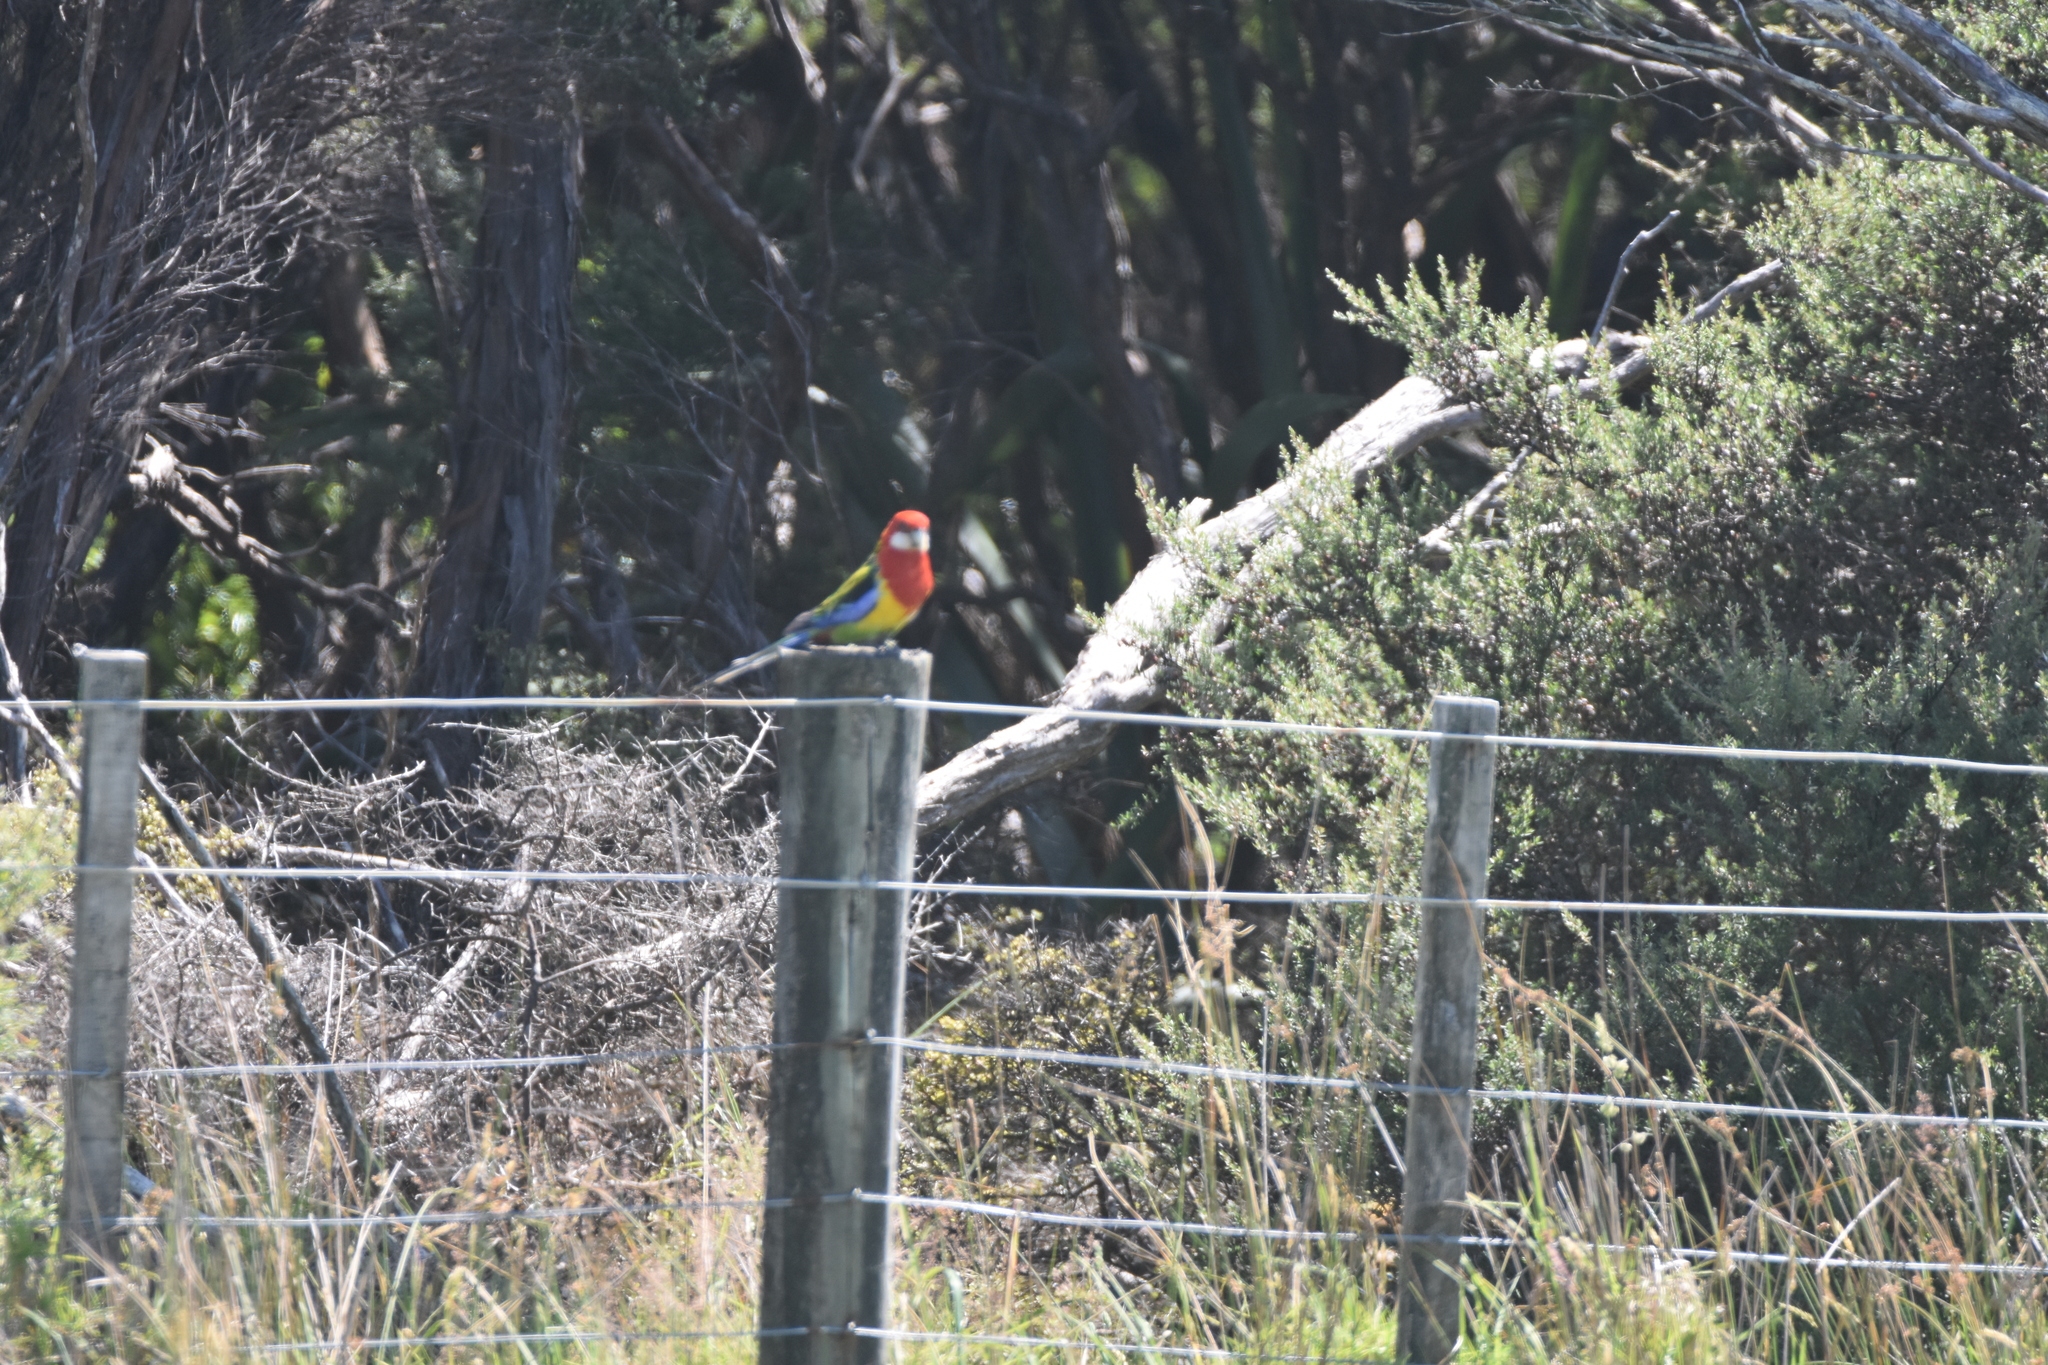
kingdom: Animalia
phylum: Chordata
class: Aves
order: Psittaciformes
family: Psittacidae
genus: Platycercus
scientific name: Platycercus eximius
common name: Eastern rosella
